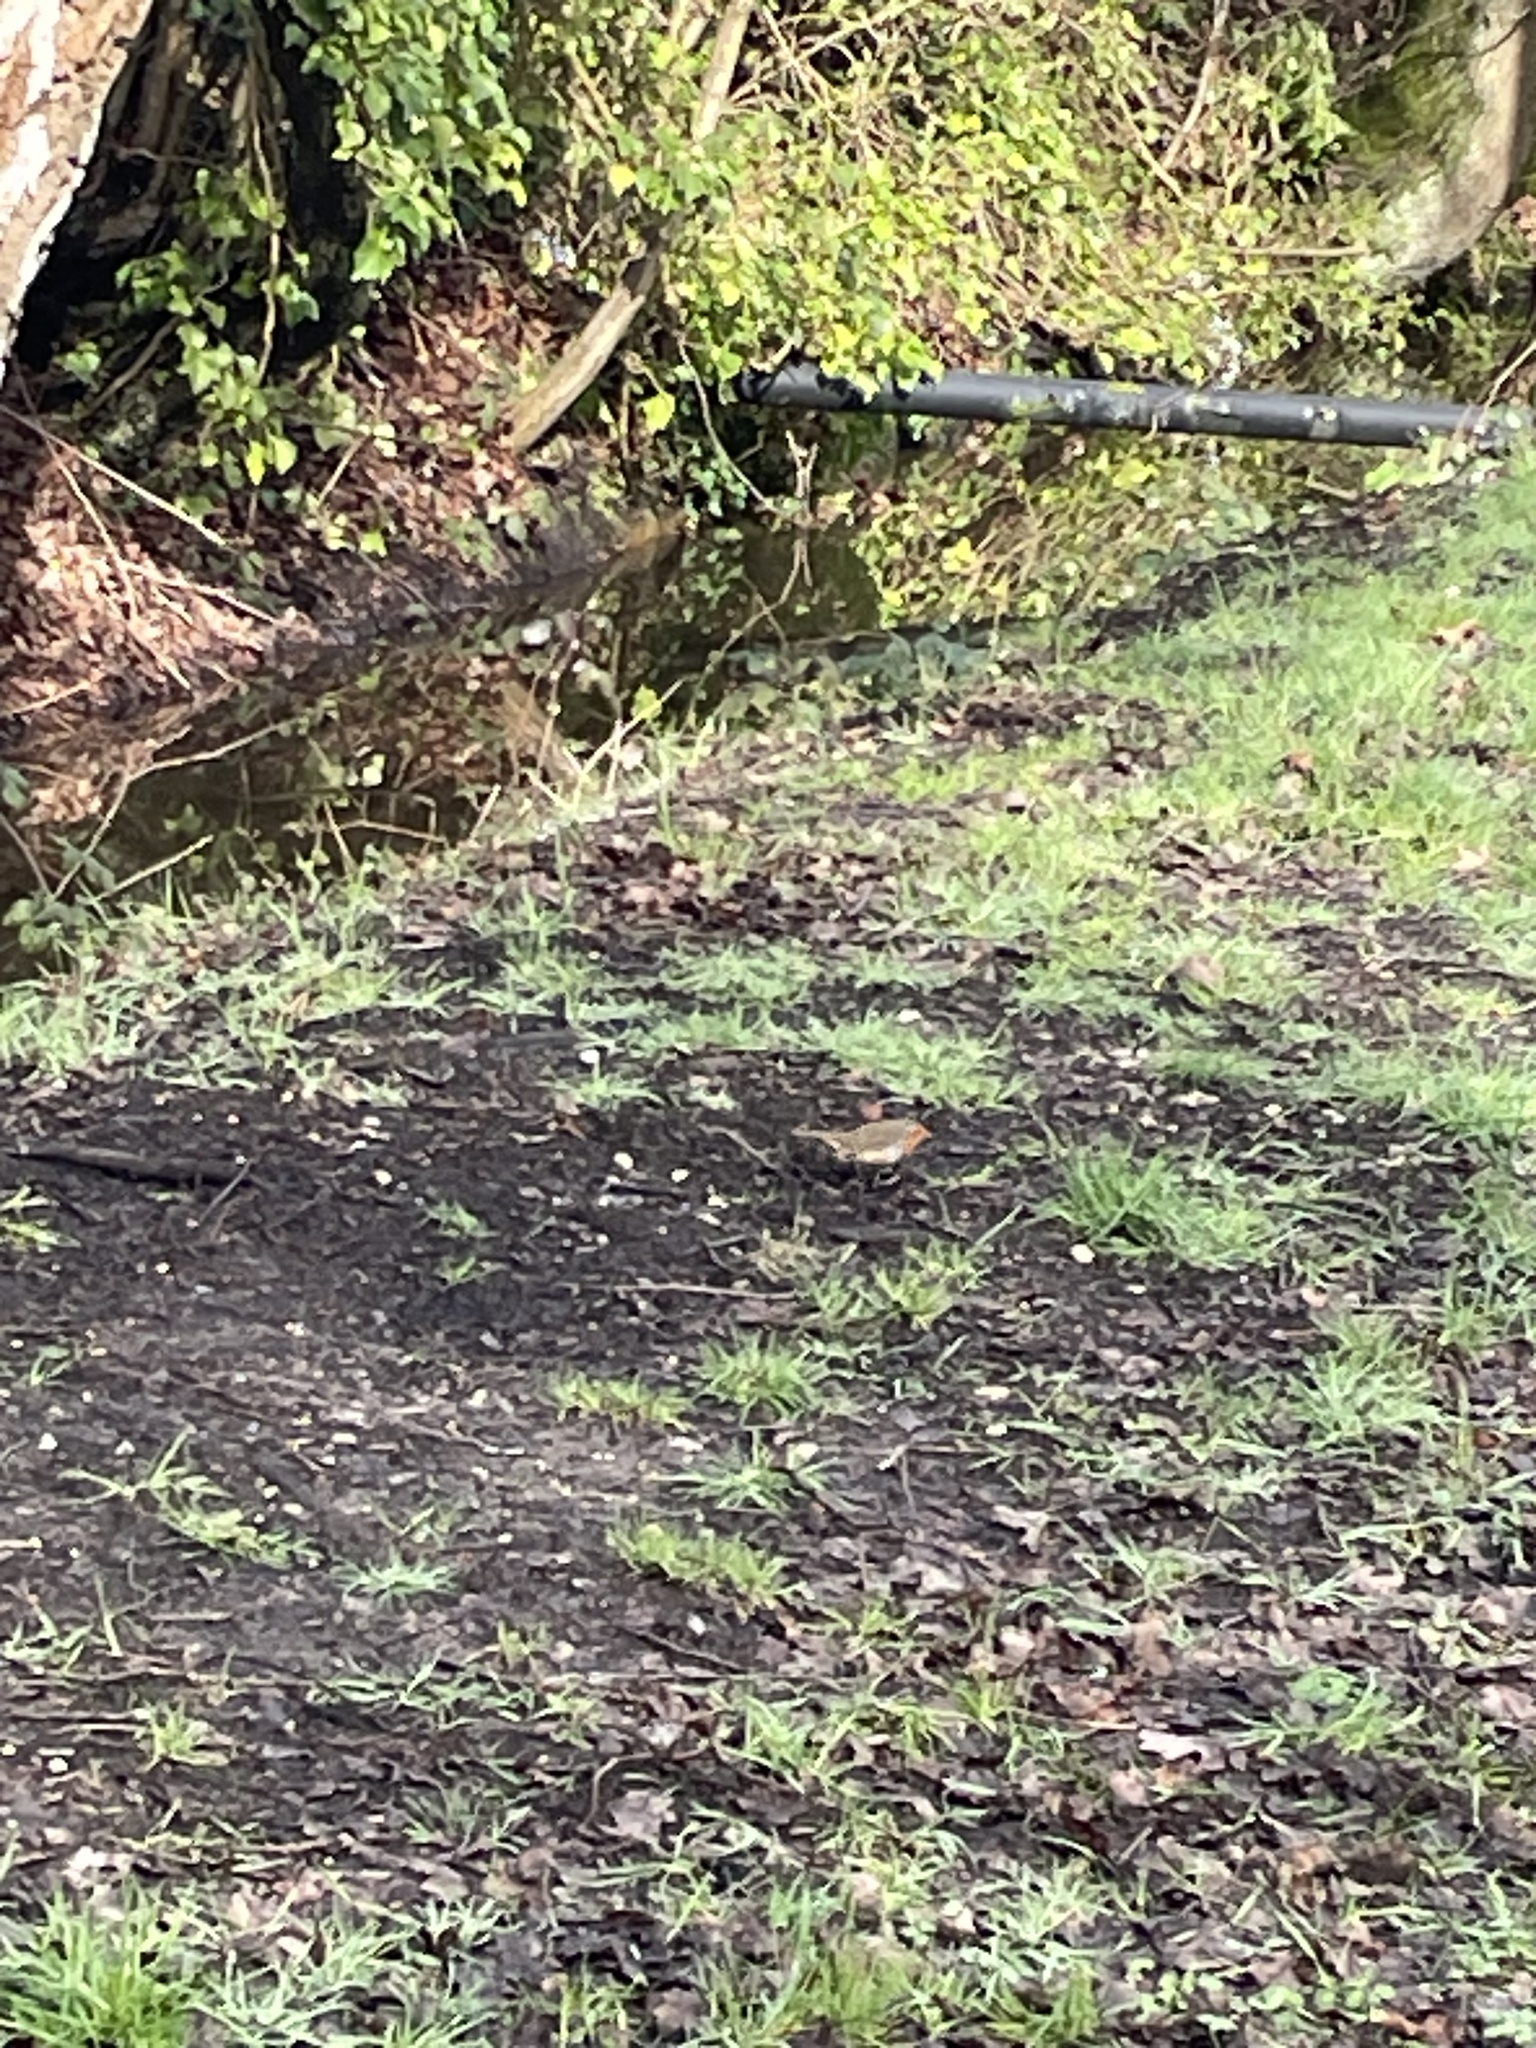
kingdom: Animalia
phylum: Chordata
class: Aves
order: Passeriformes
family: Muscicapidae
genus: Erithacus
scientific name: Erithacus rubecula
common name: European robin
